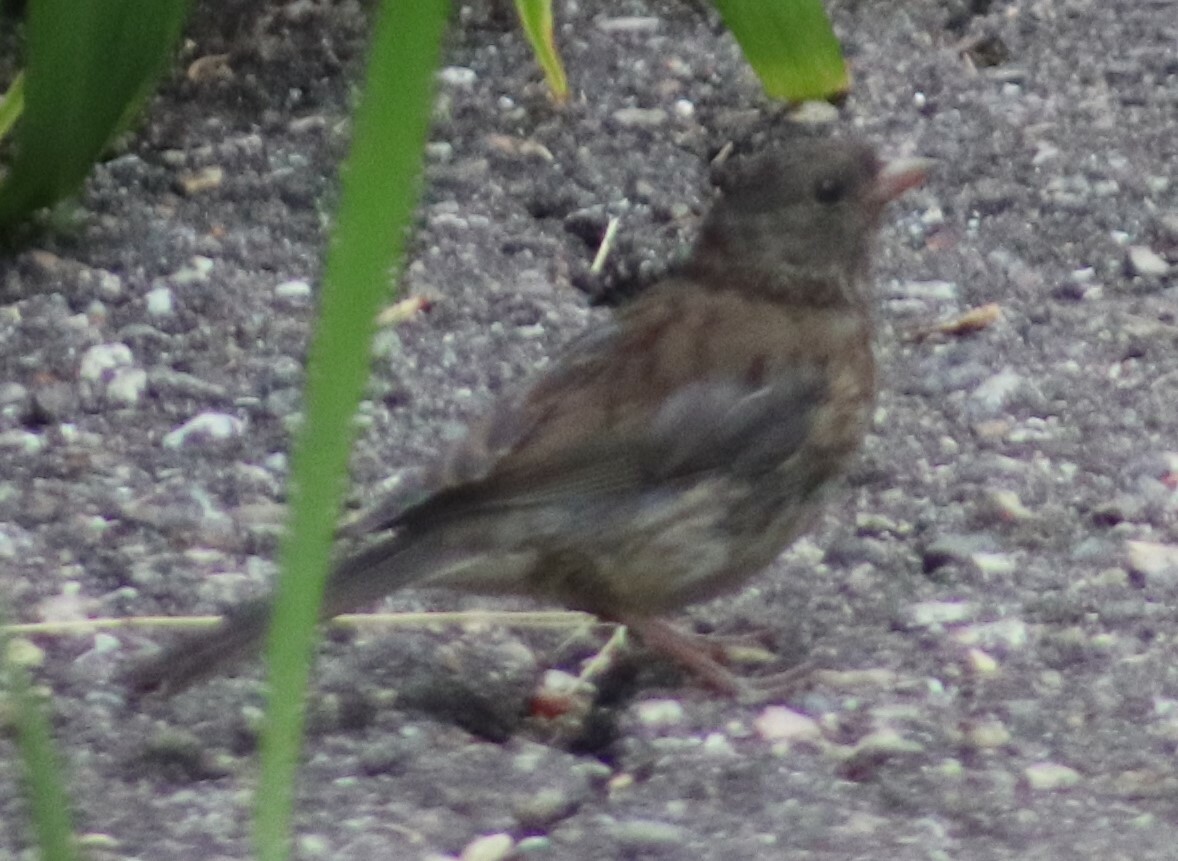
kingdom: Animalia
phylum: Chordata
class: Aves
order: Passeriformes
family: Passerellidae
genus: Junco
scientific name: Junco hyemalis
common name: Dark-eyed junco
